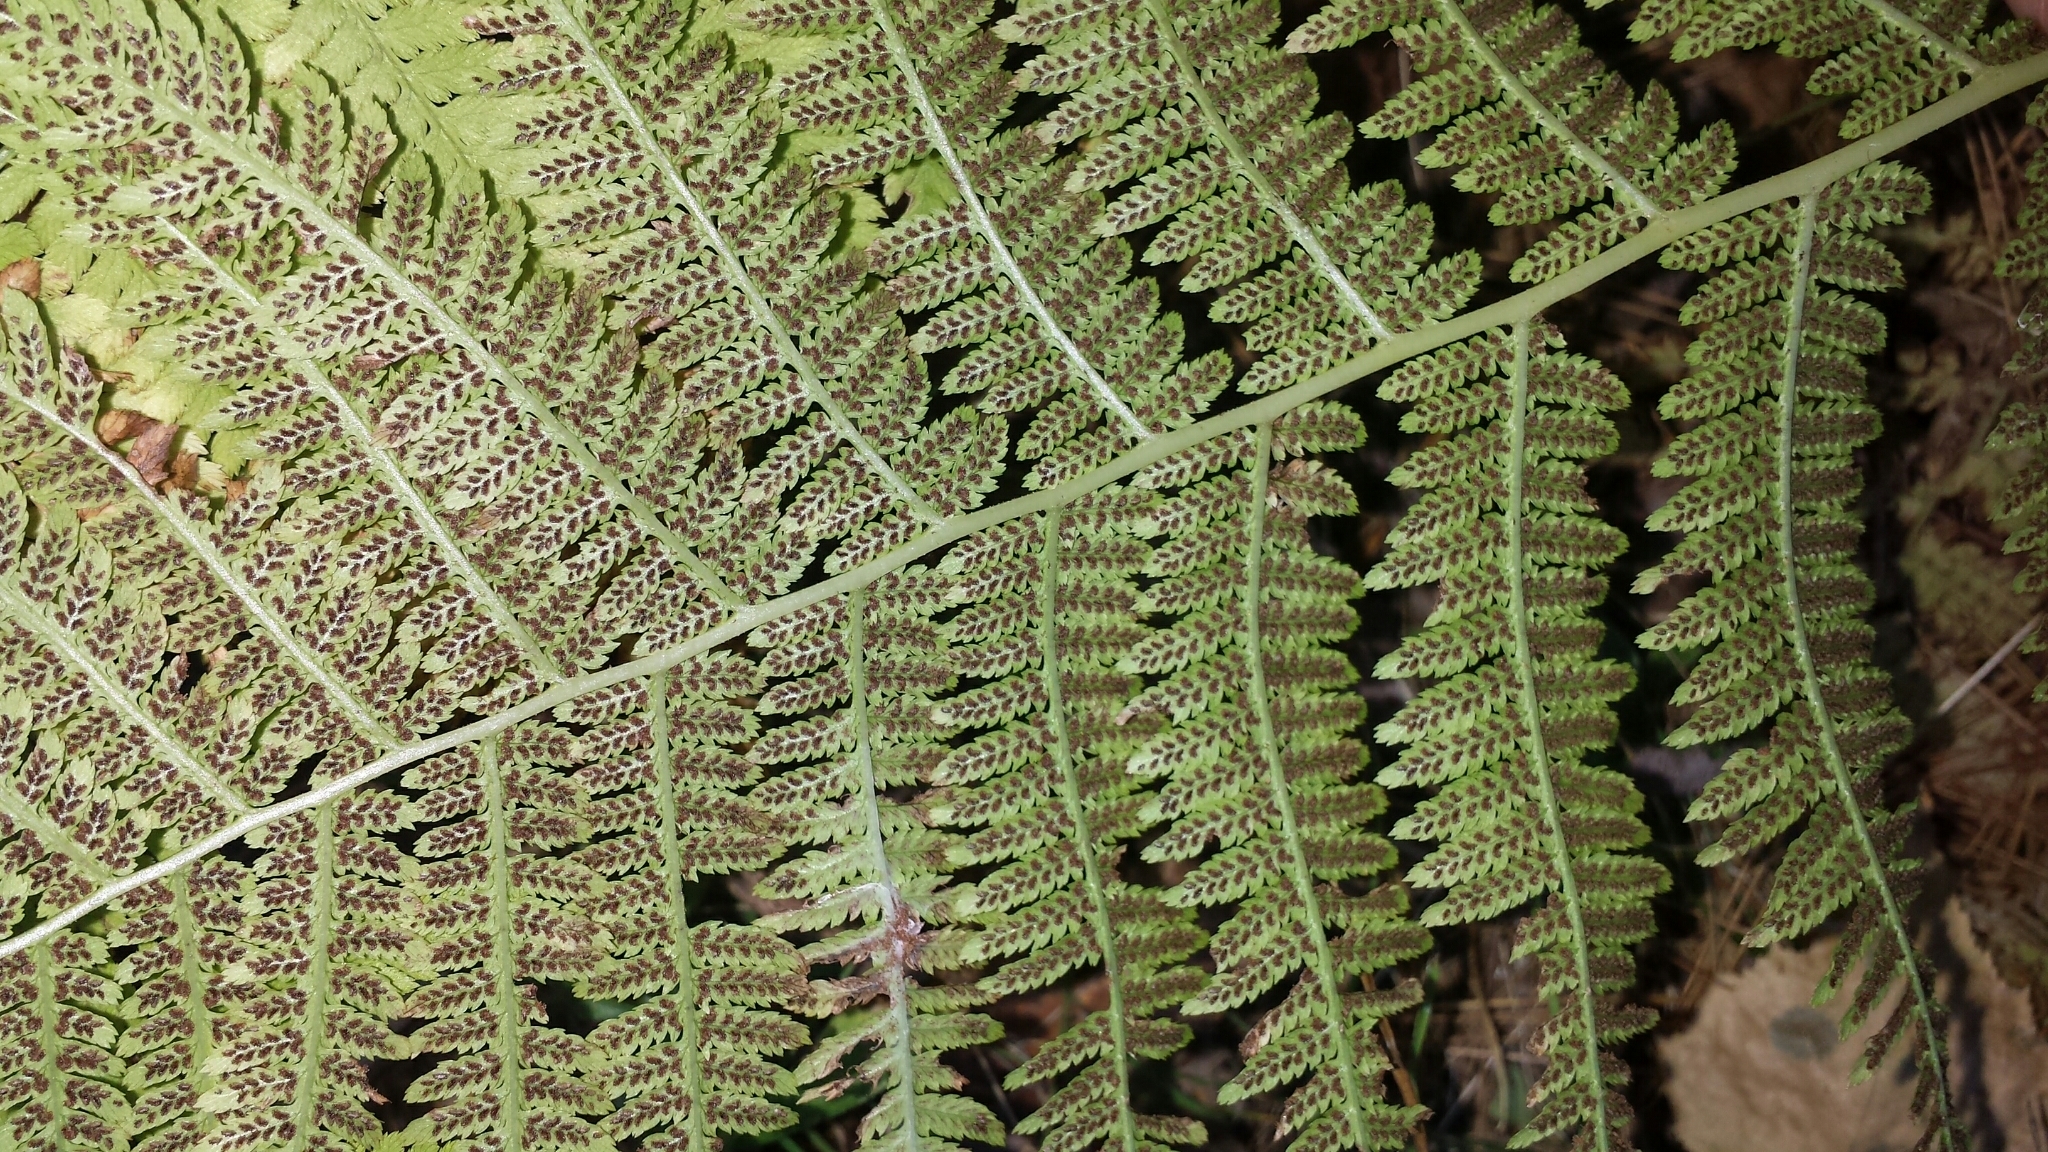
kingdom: Plantae
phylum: Tracheophyta
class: Polypodiopsida
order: Polypodiales
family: Athyriaceae
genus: Athyrium
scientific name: Athyrium angustum
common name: Northern lady fern
